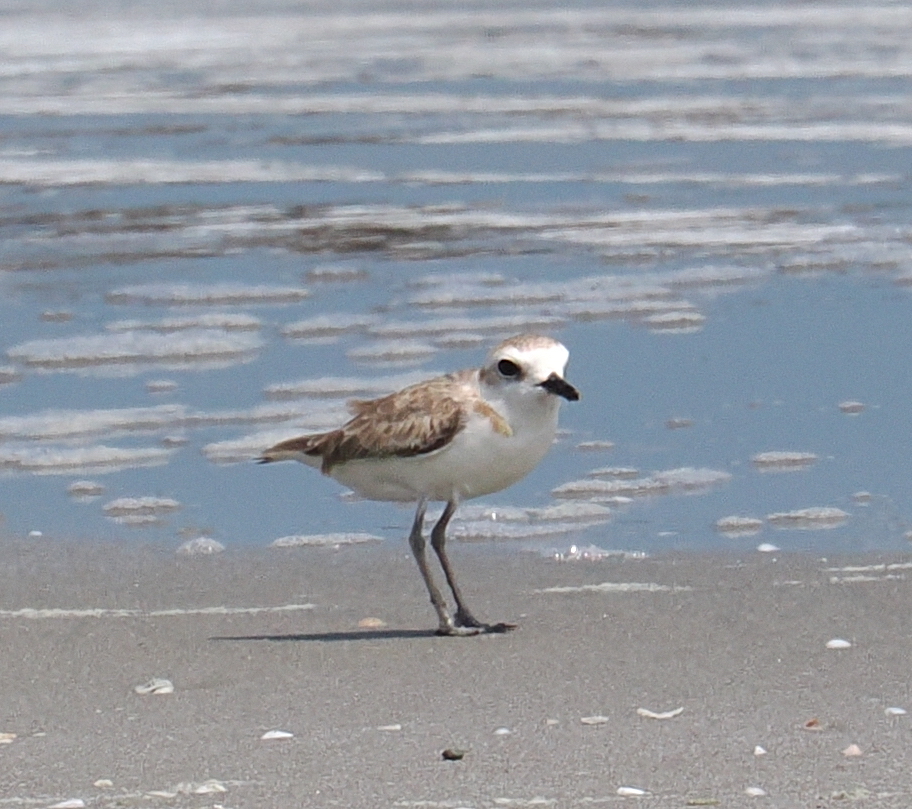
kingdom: Animalia
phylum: Chordata
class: Aves
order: Charadriiformes
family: Charadriidae
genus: Anarhynchus
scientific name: Anarhynchus
